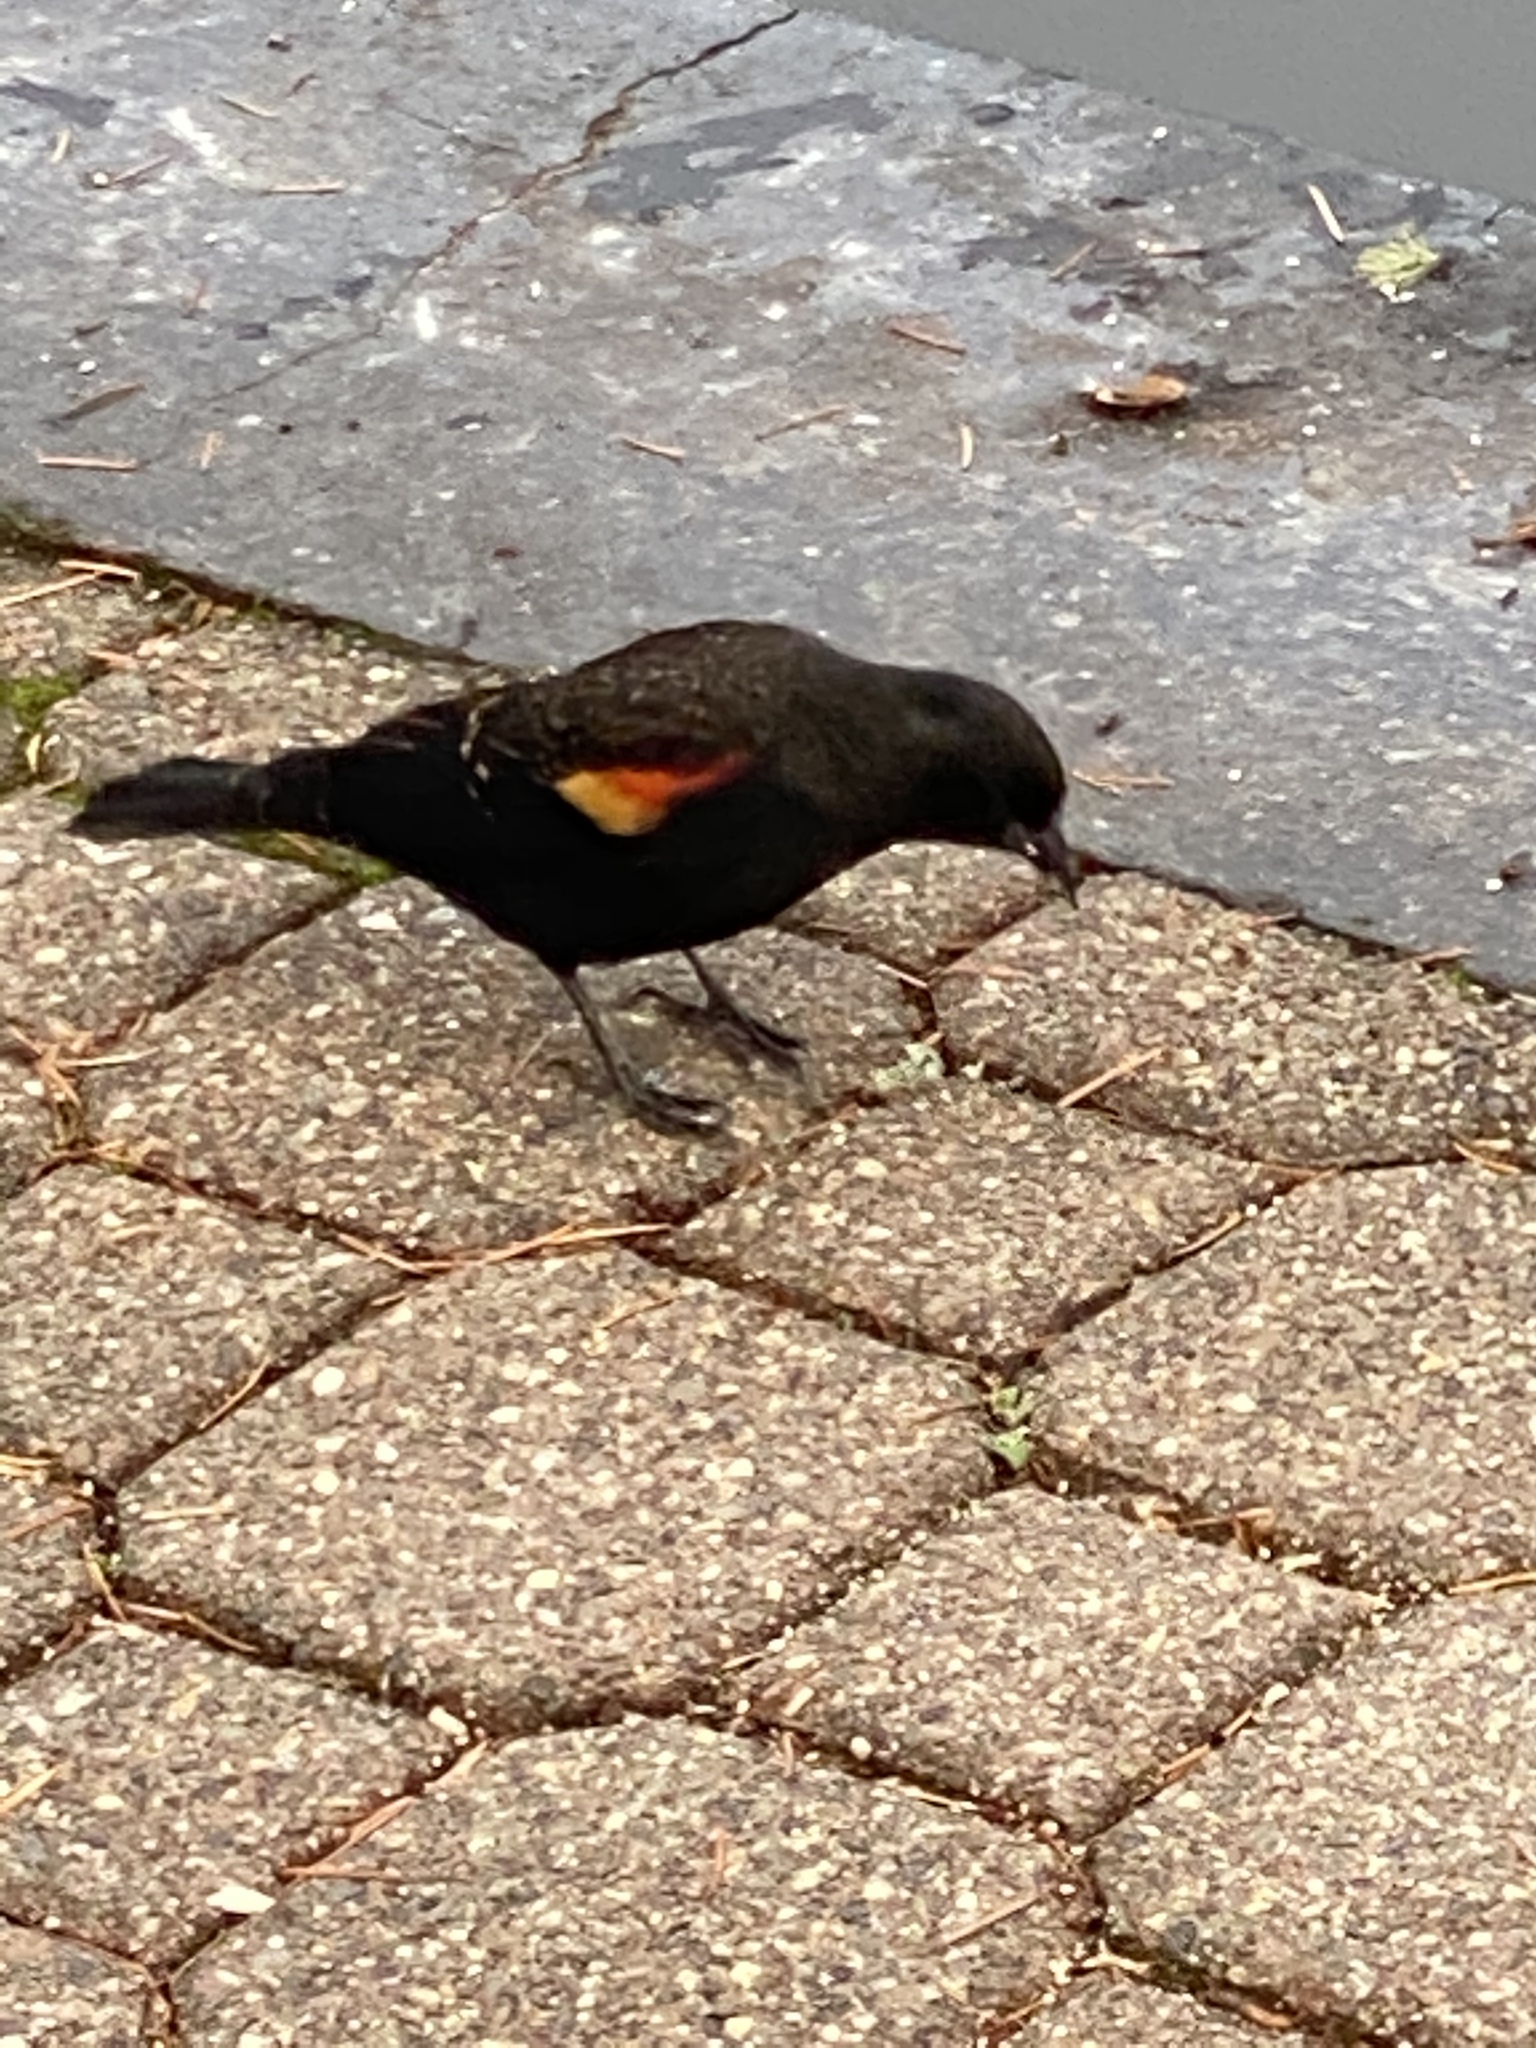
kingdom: Animalia
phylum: Chordata
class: Aves
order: Passeriformes
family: Icteridae
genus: Agelaius
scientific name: Agelaius phoeniceus
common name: Red-winged blackbird
